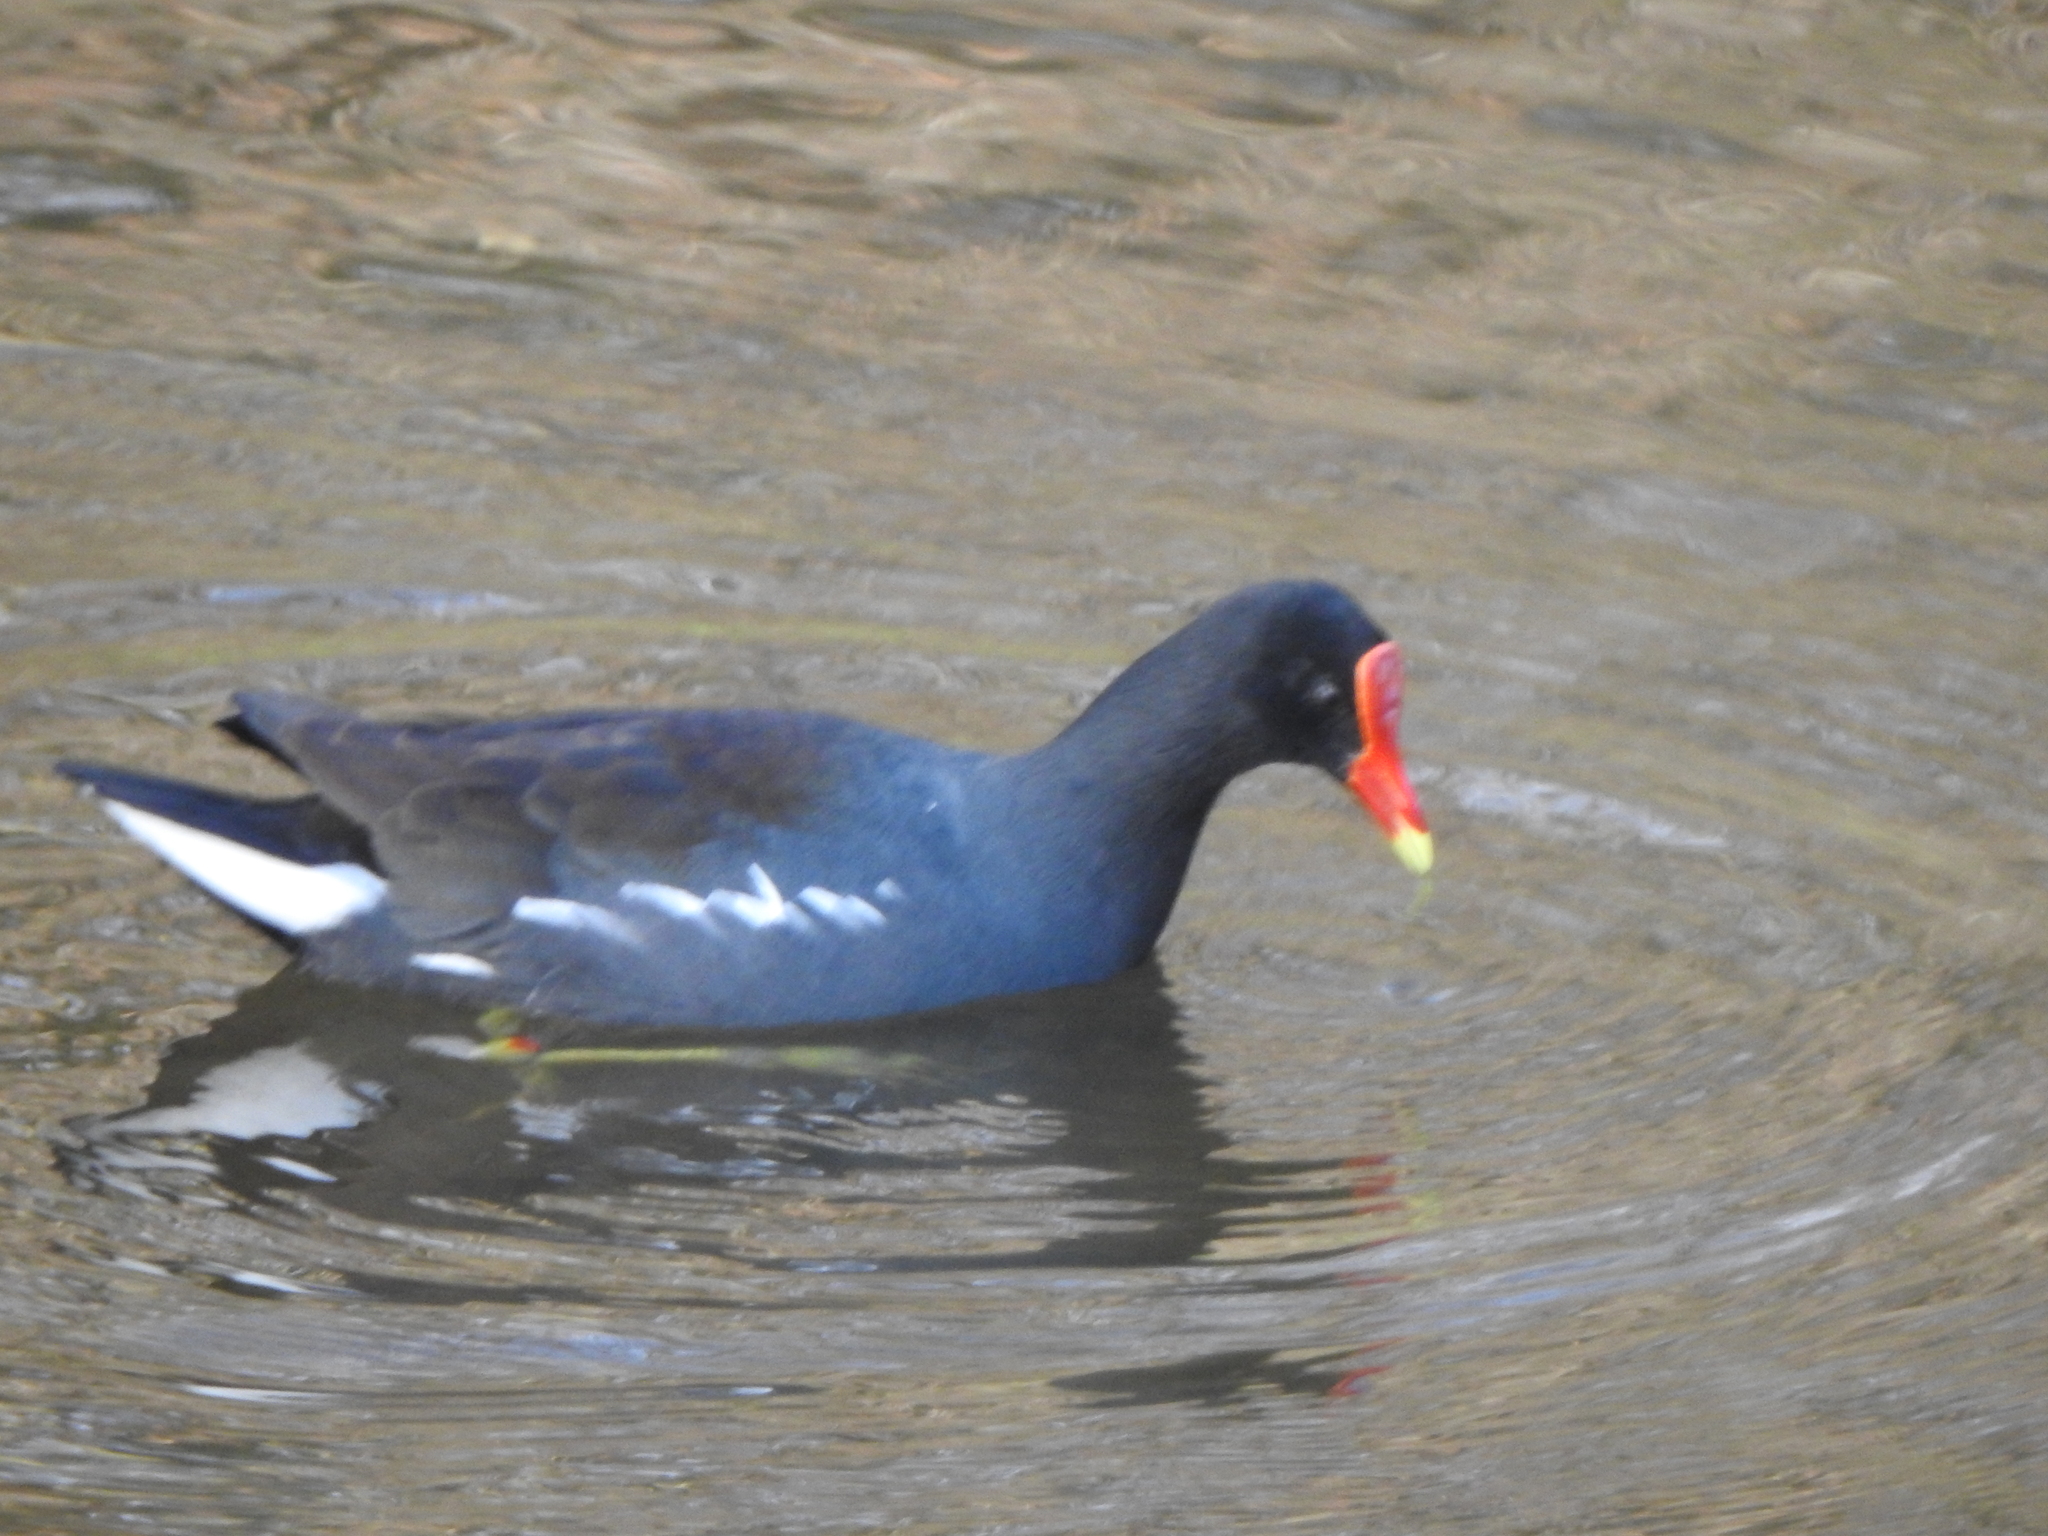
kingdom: Animalia
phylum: Chordata
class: Aves
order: Gruiformes
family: Rallidae
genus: Gallinula
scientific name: Gallinula chloropus
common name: Common moorhen
